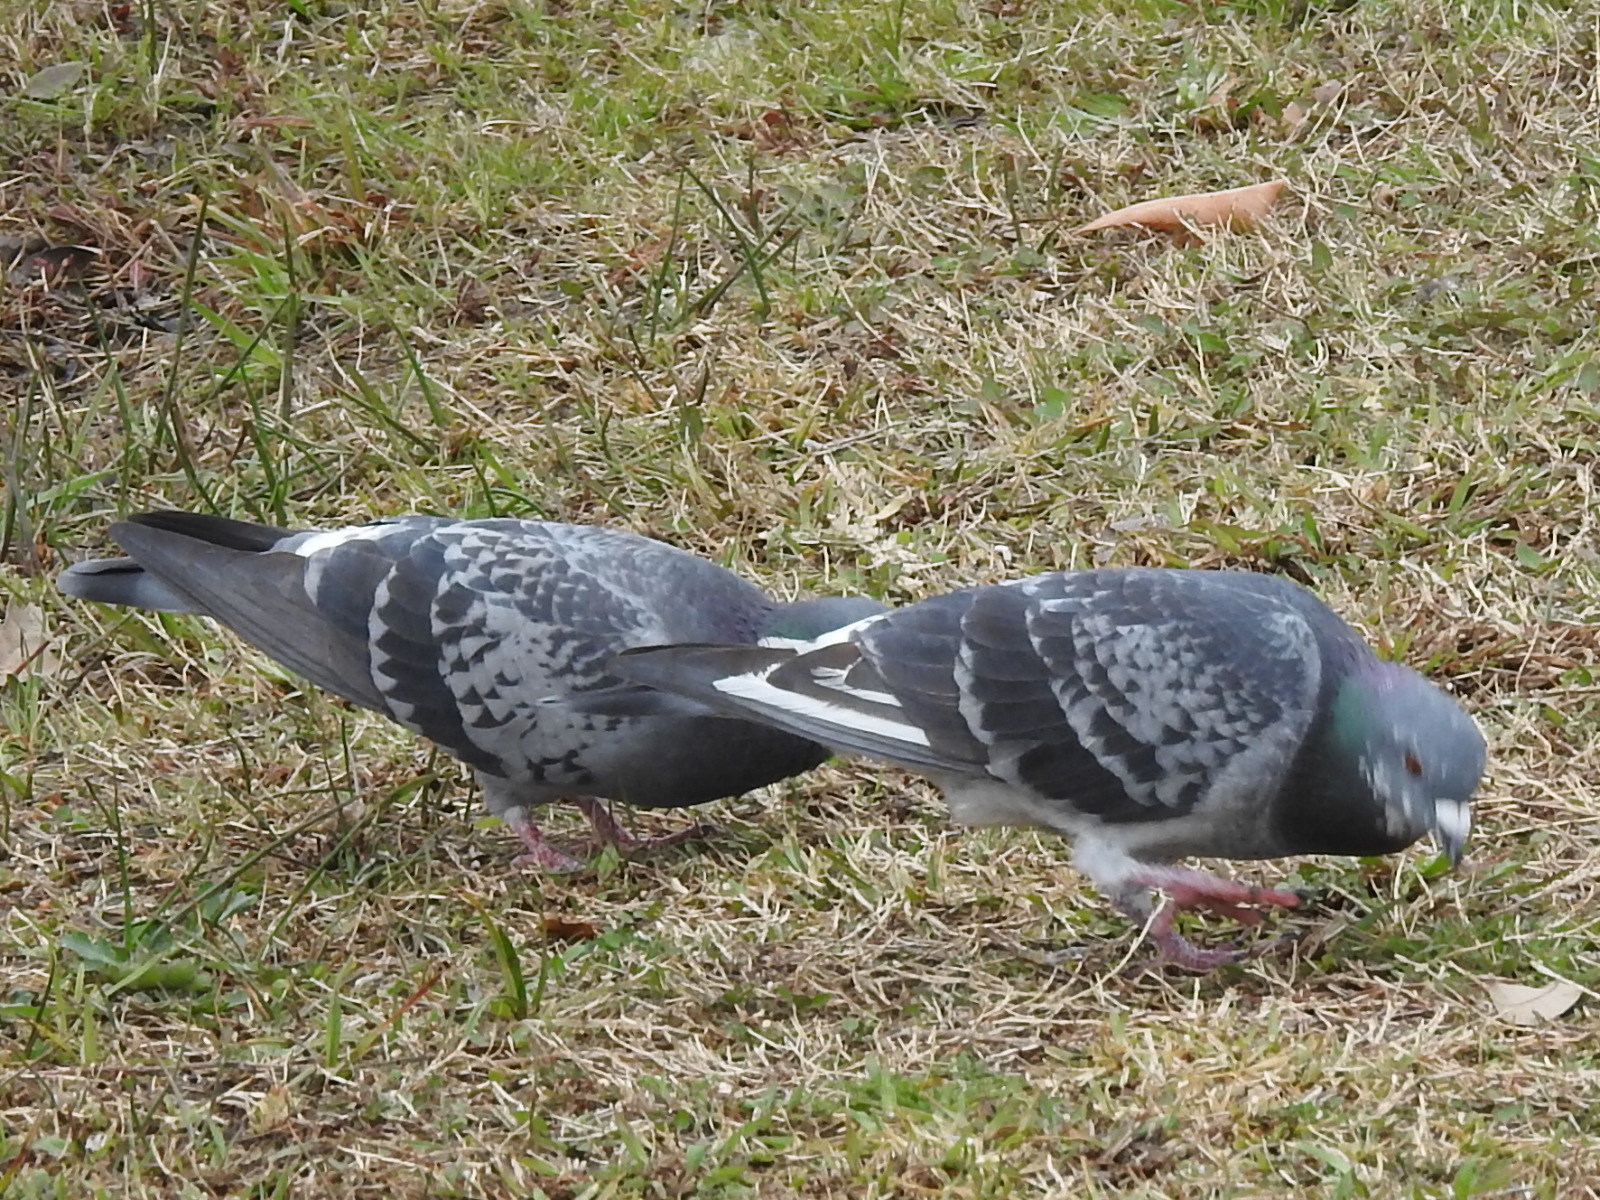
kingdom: Animalia
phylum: Chordata
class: Aves
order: Columbiformes
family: Columbidae
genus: Columba
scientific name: Columba livia
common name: Rock pigeon
